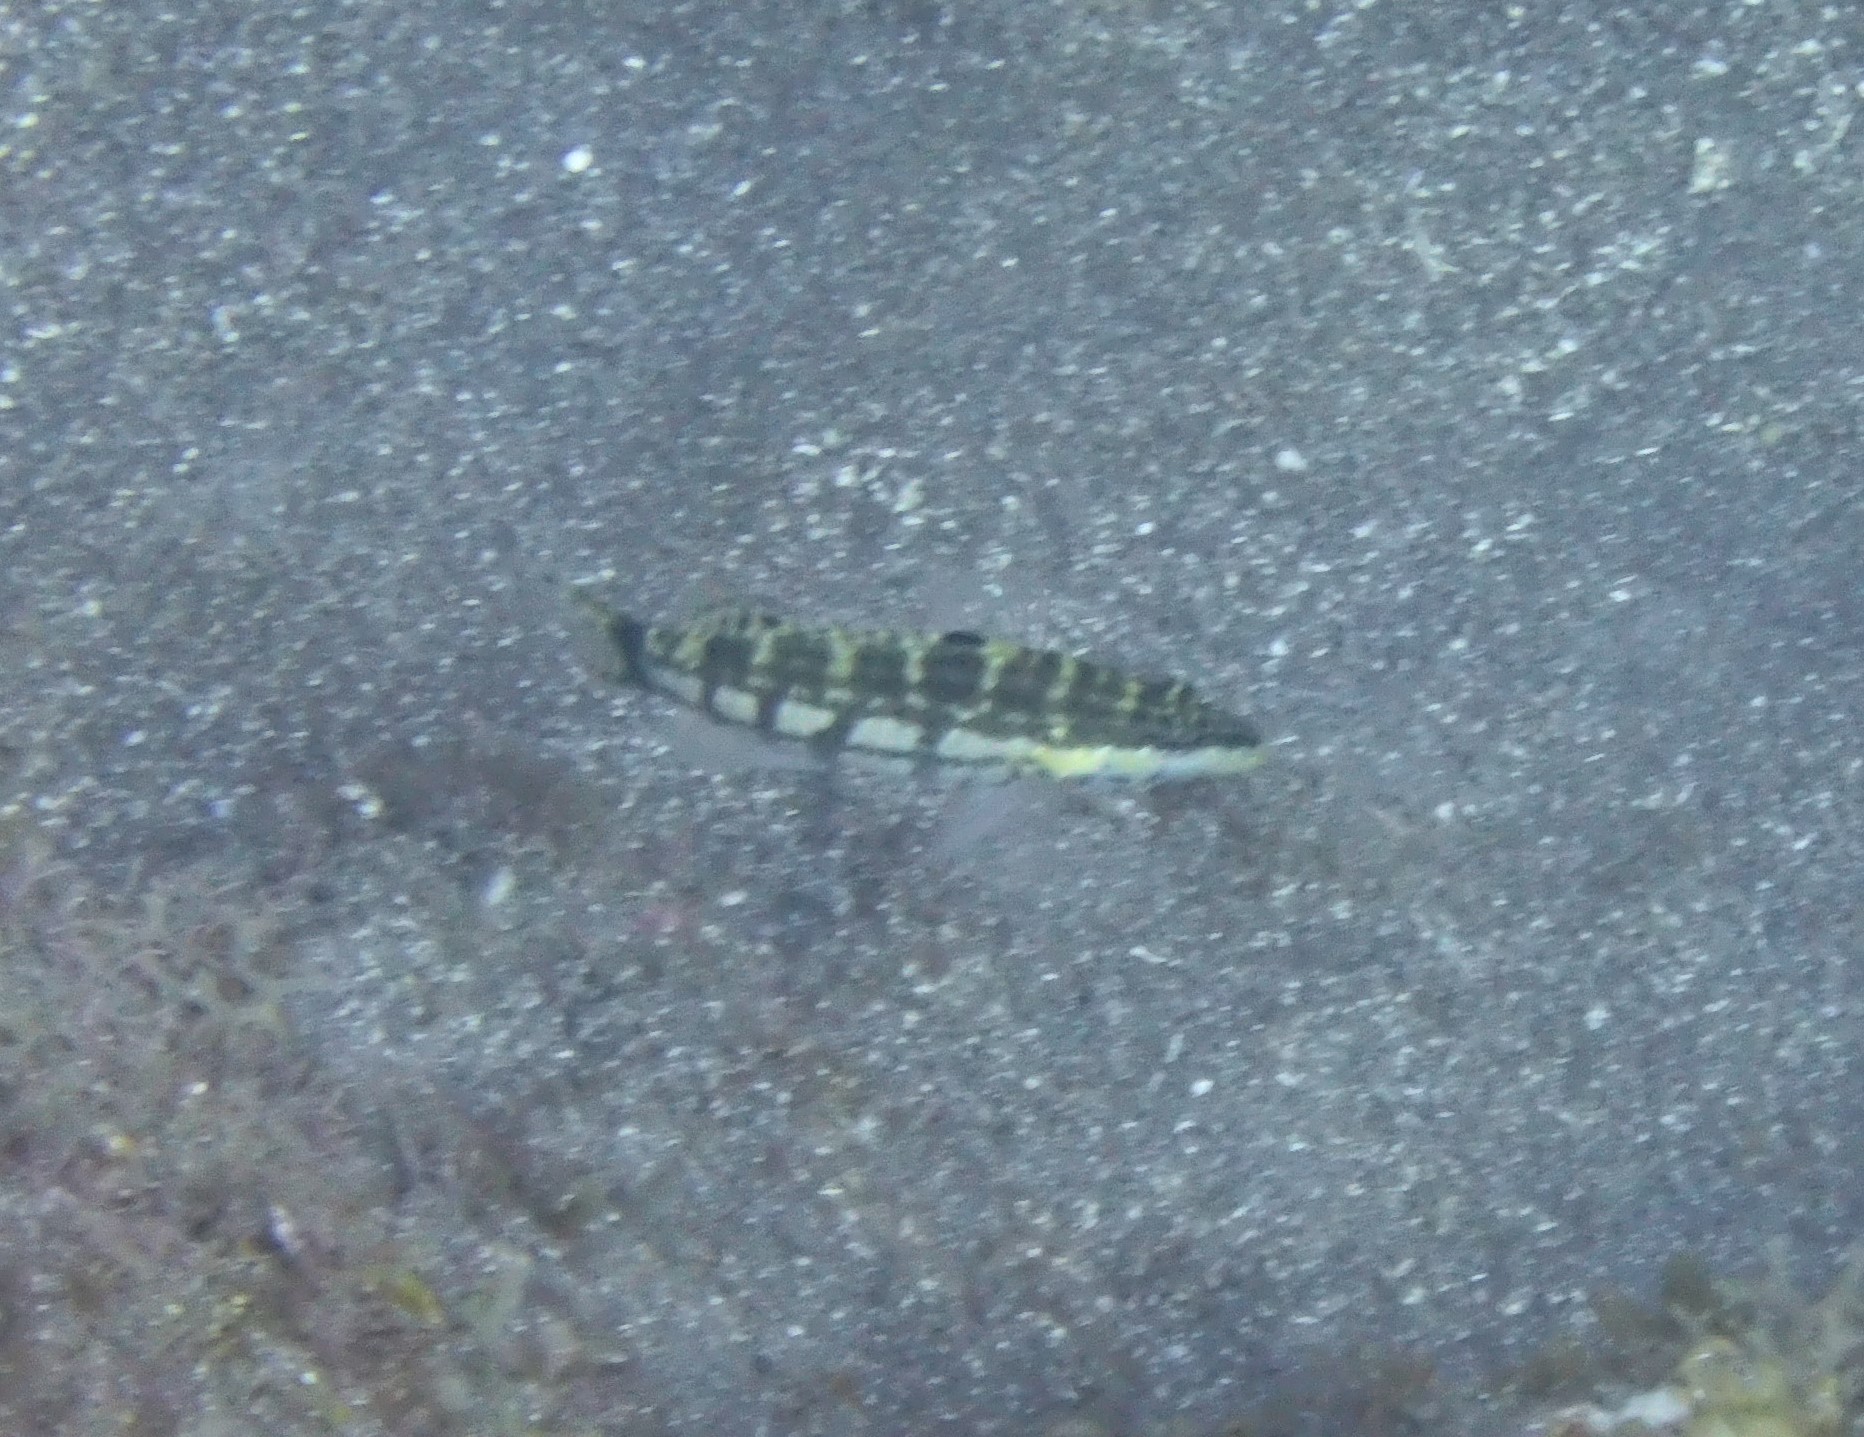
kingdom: Animalia
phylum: Chordata
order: Perciformes
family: Serranidae
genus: Serranus
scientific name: Serranus tigrinus
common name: Harlequin bass
